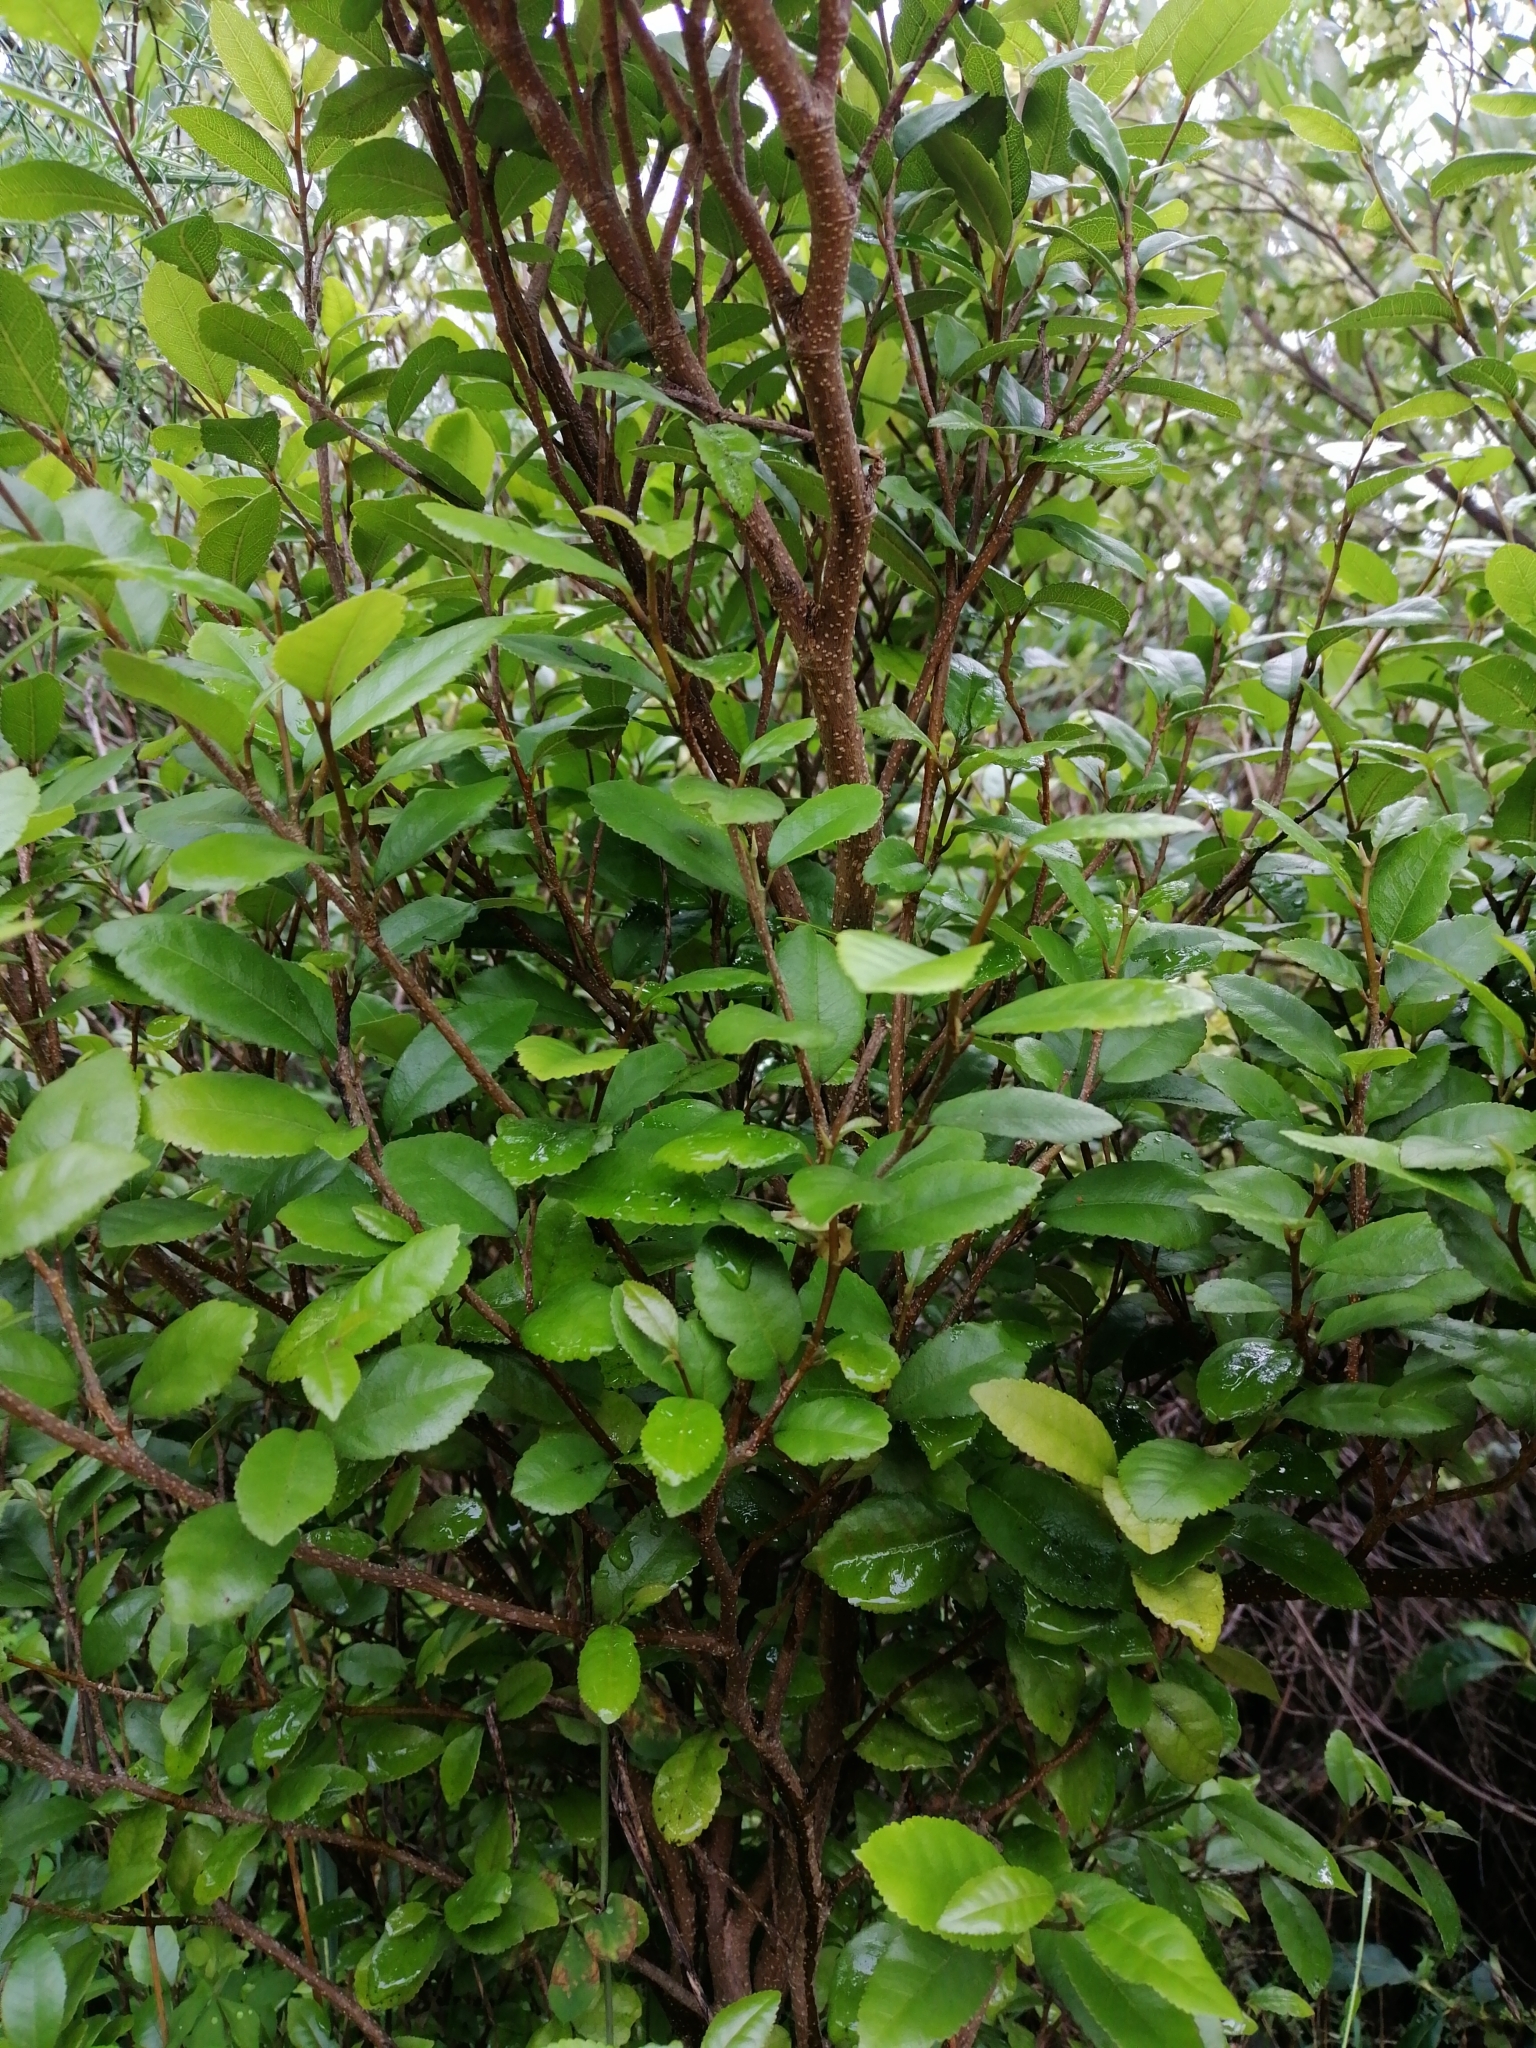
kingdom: Plantae
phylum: Tracheophyta
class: Magnoliopsida
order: Rosales
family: Moraceae
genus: Paratrophis
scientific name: Paratrophis banksii
